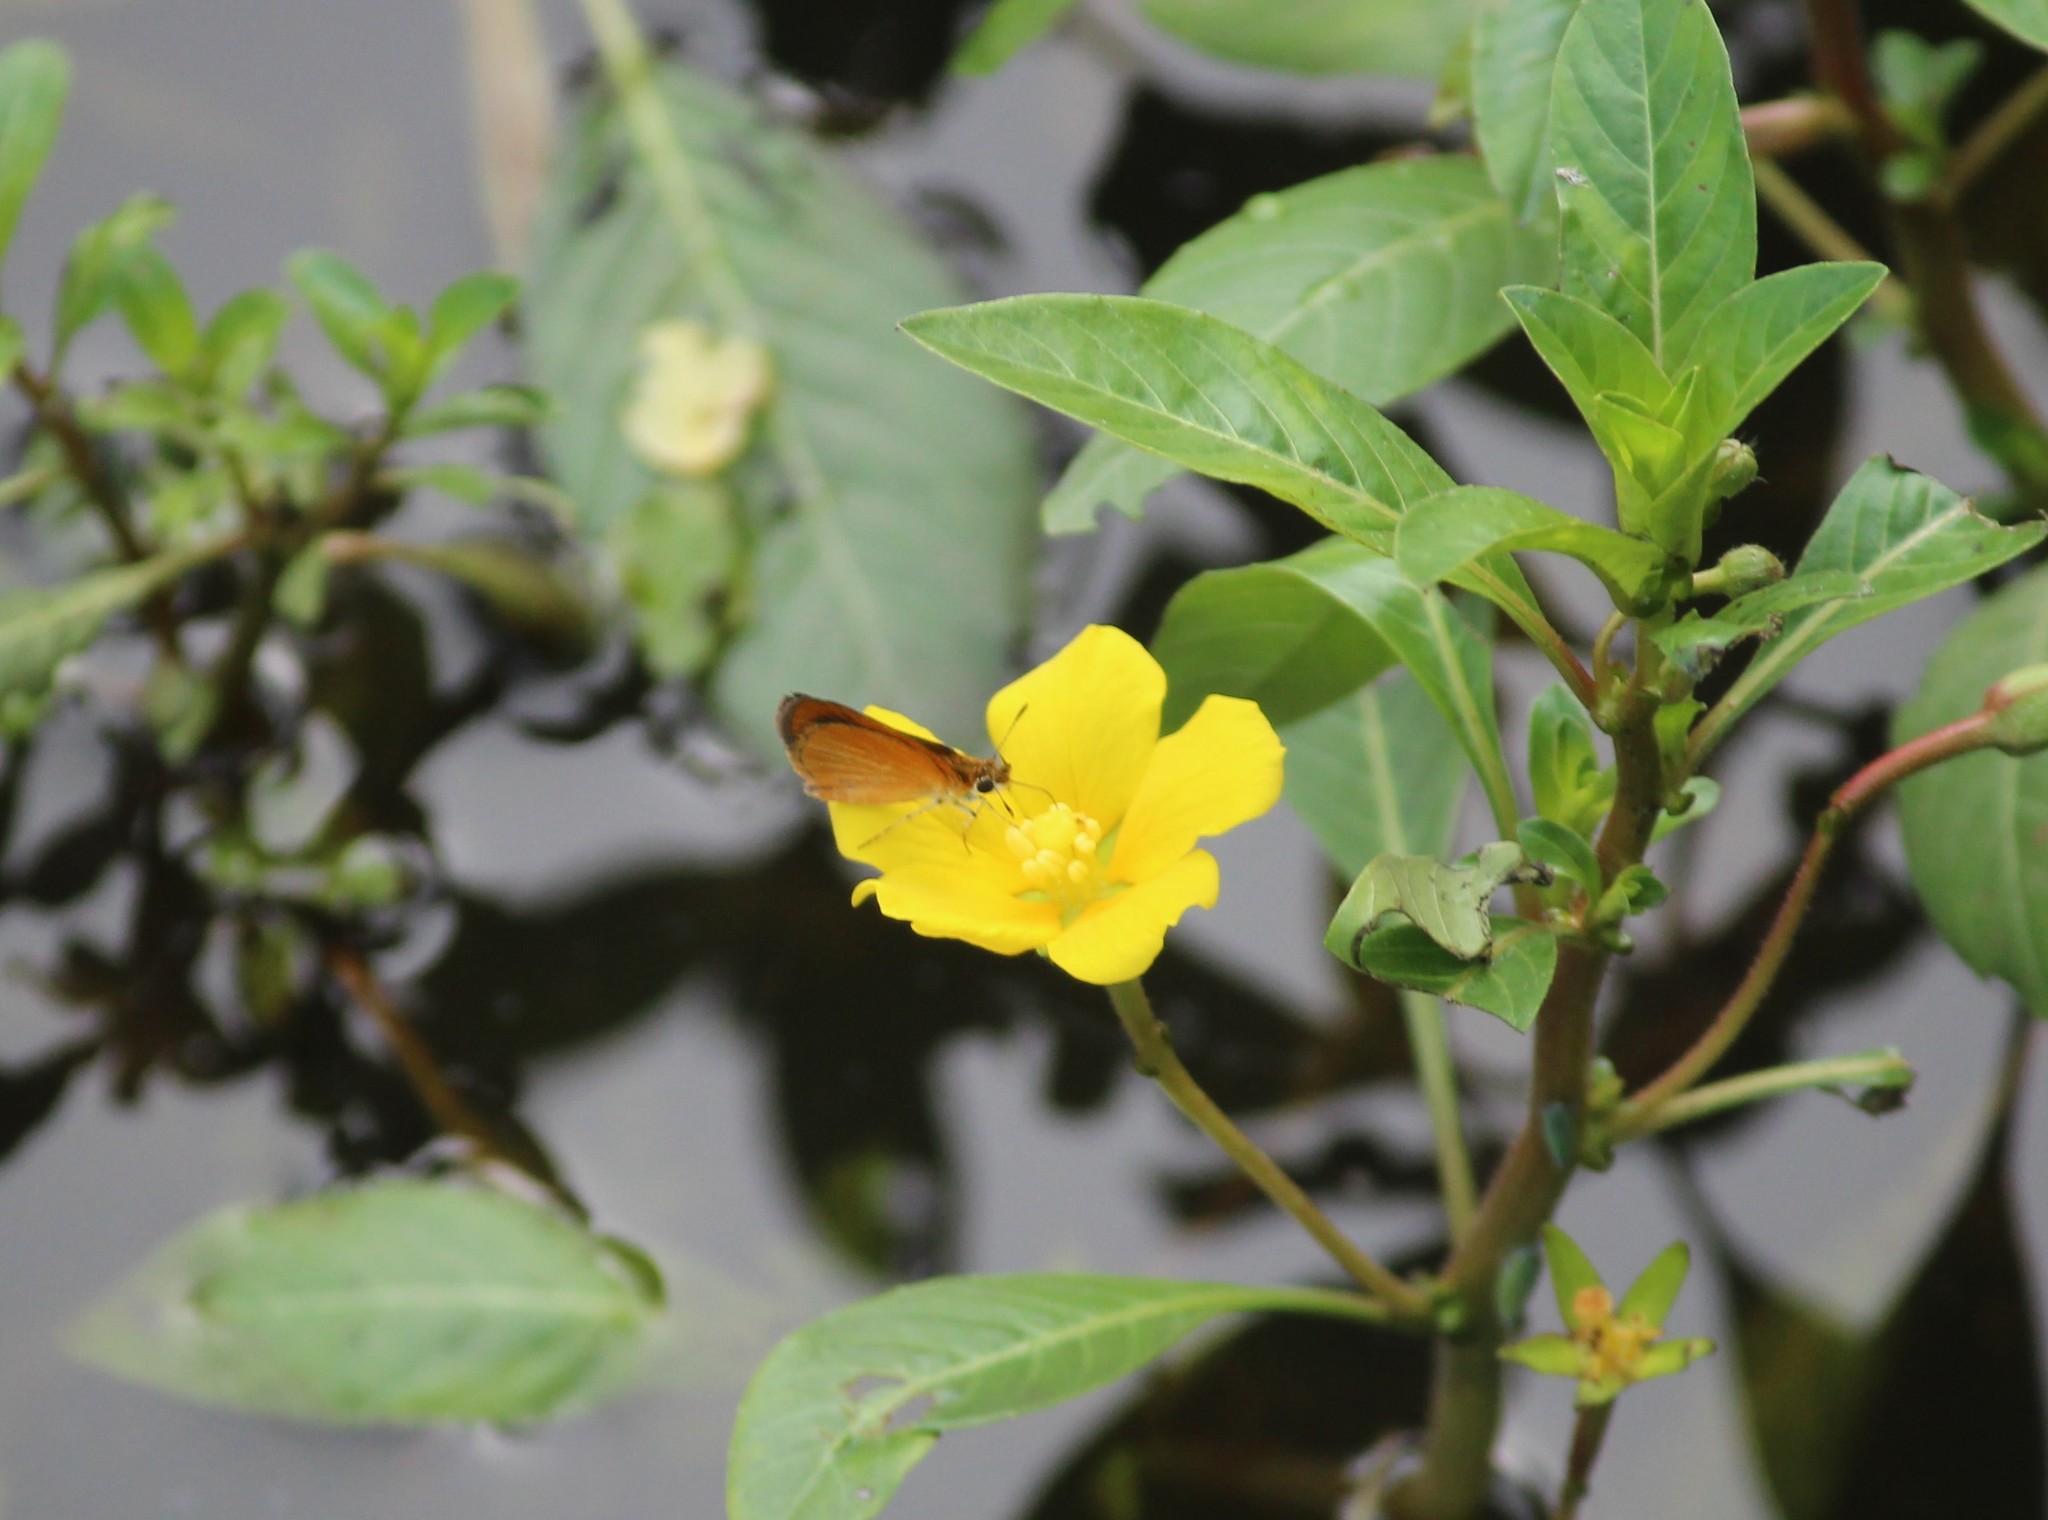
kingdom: Animalia
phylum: Arthropoda
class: Insecta
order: Lepidoptera
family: Hesperiidae
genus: Ancyloxypha
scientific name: Ancyloxypha numitor
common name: Least skipper
